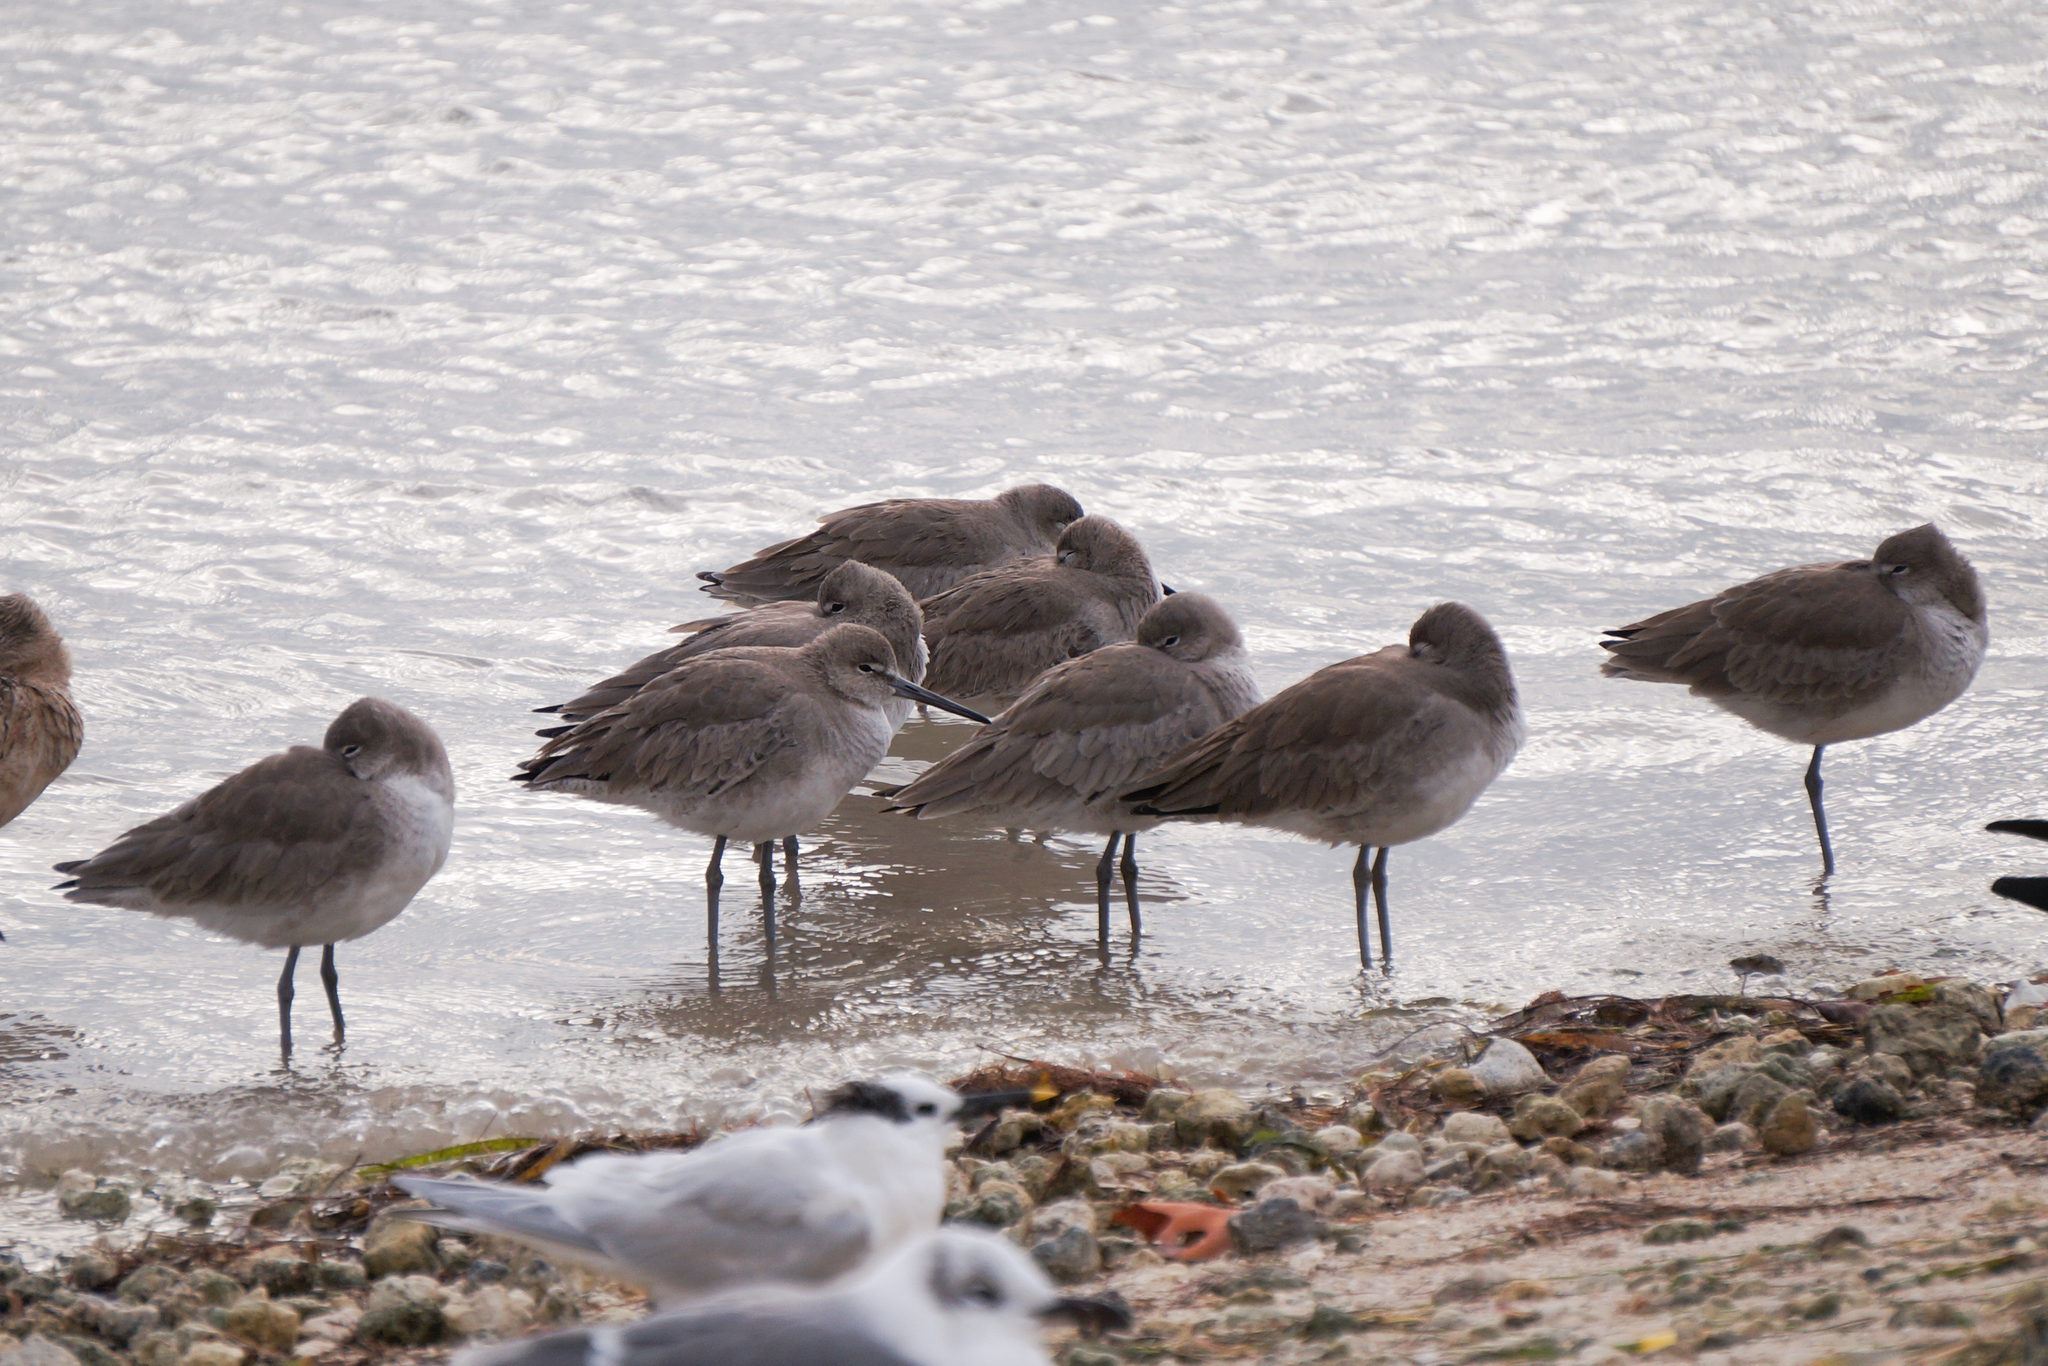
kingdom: Animalia
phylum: Chordata
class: Aves
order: Charadriiformes
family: Scolopacidae
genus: Tringa
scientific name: Tringa semipalmata
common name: Willet
